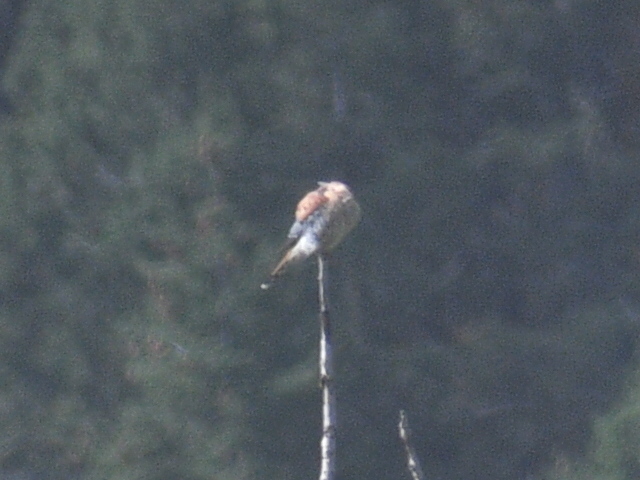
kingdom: Animalia
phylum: Chordata
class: Aves
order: Falconiformes
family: Falconidae
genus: Falco
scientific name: Falco sparverius
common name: American kestrel
